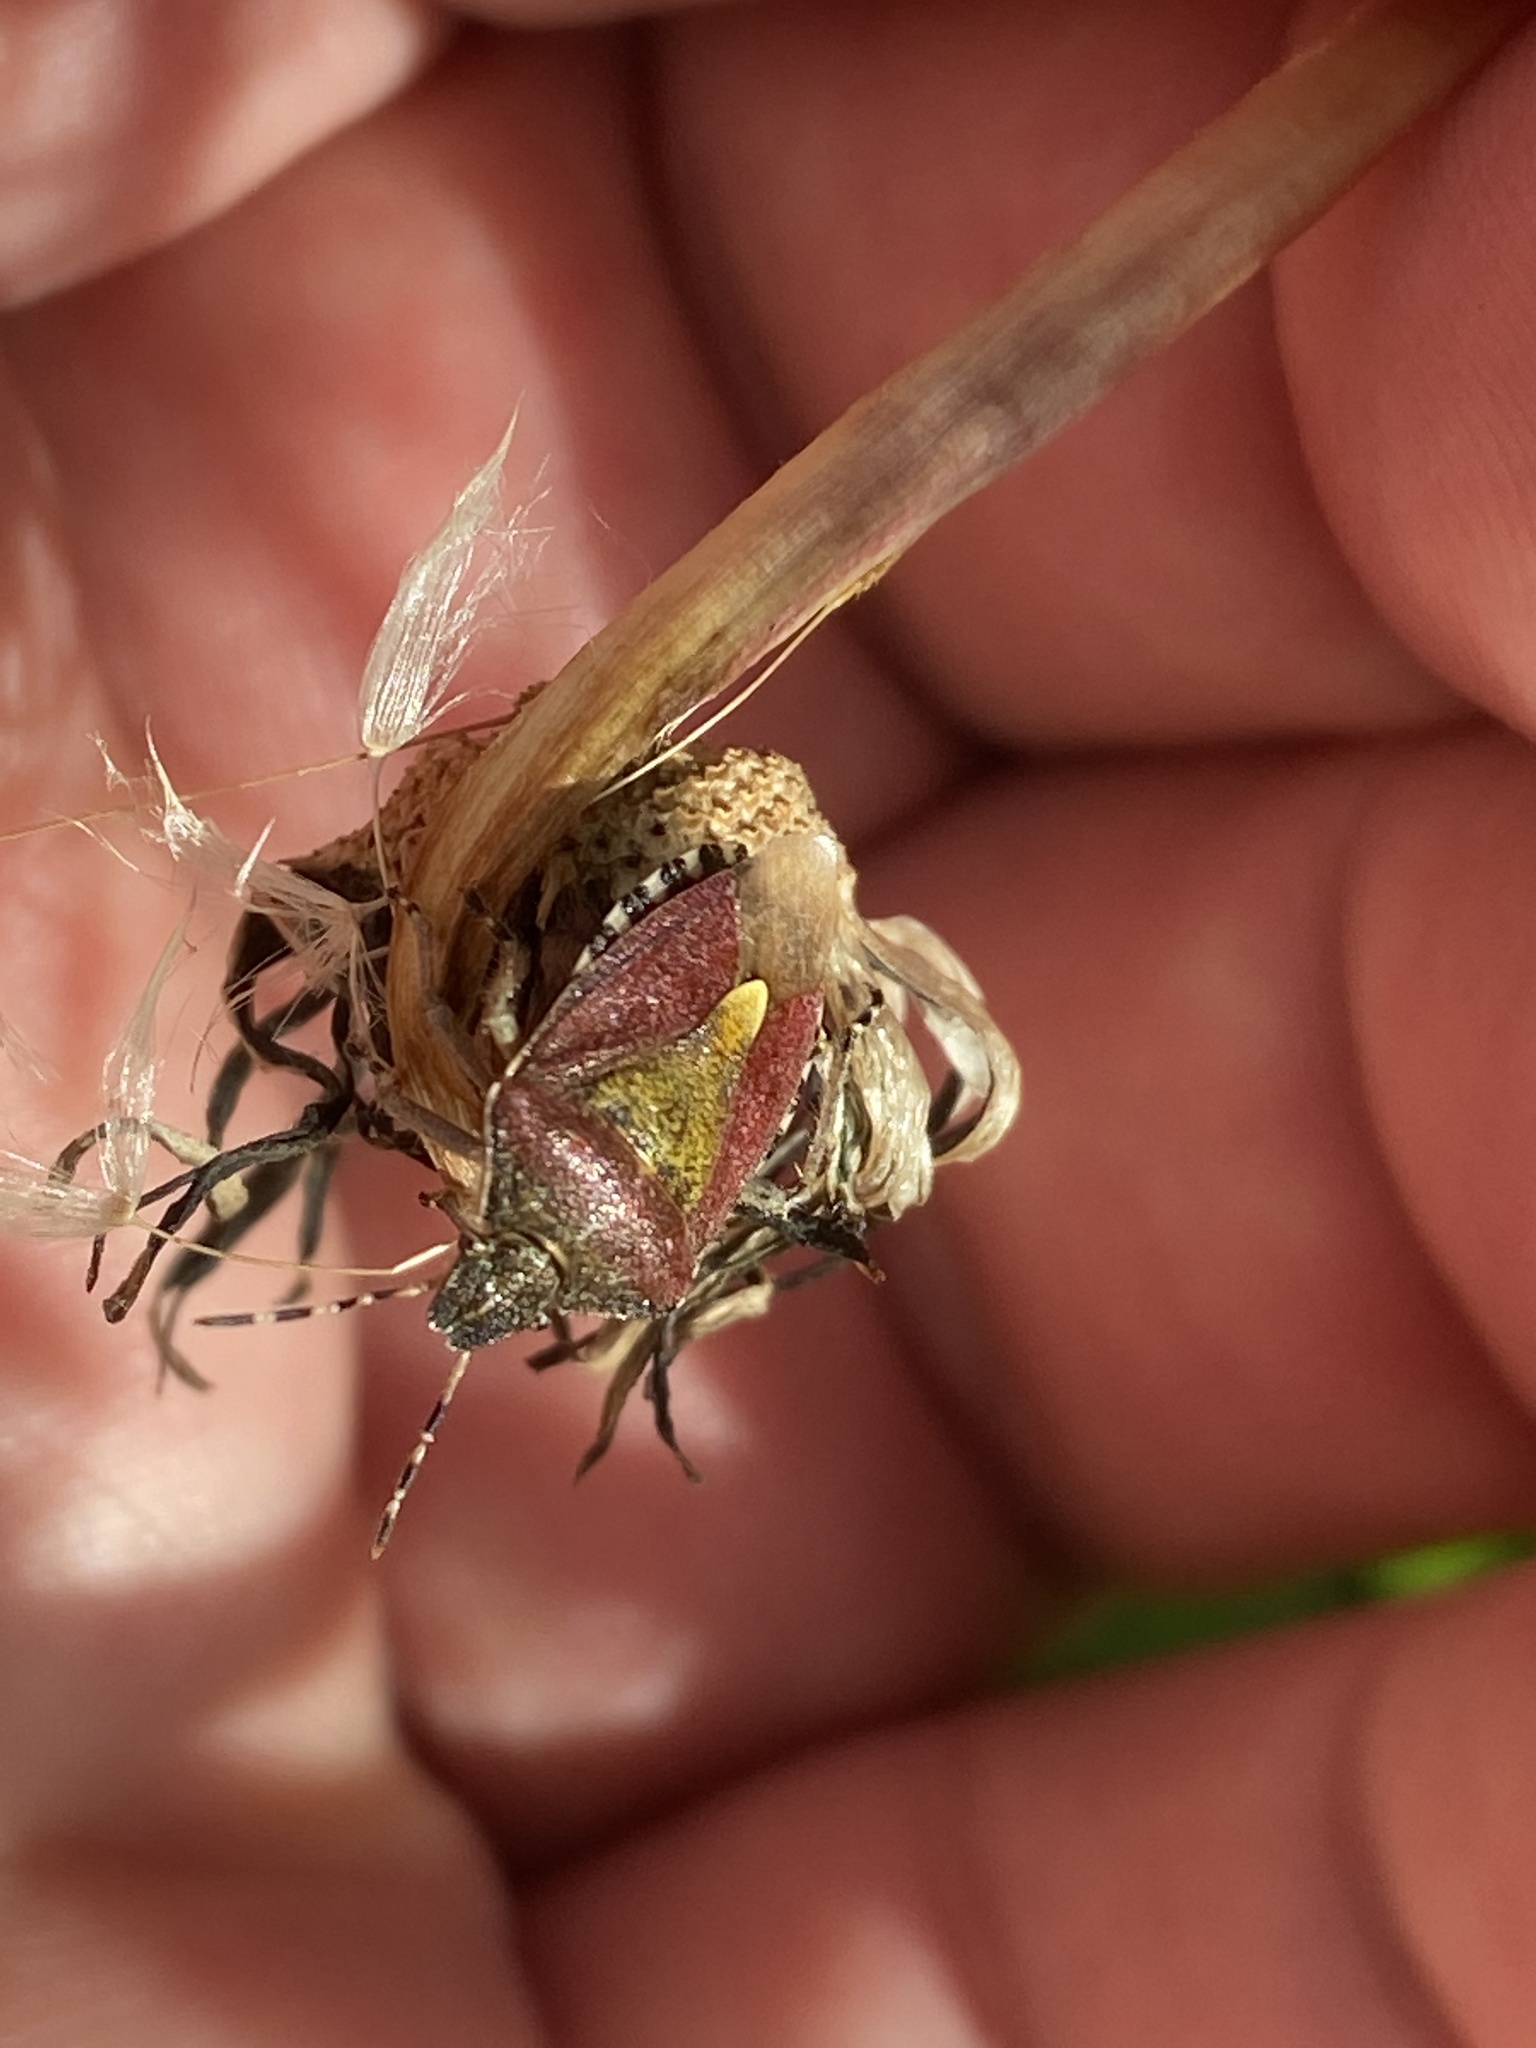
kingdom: Animalia
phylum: Arthropoda
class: Insecta
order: Hemiptera
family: Pentatomidae
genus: Dolycoris
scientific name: Dolycoris baccarum
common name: Sloe bug
